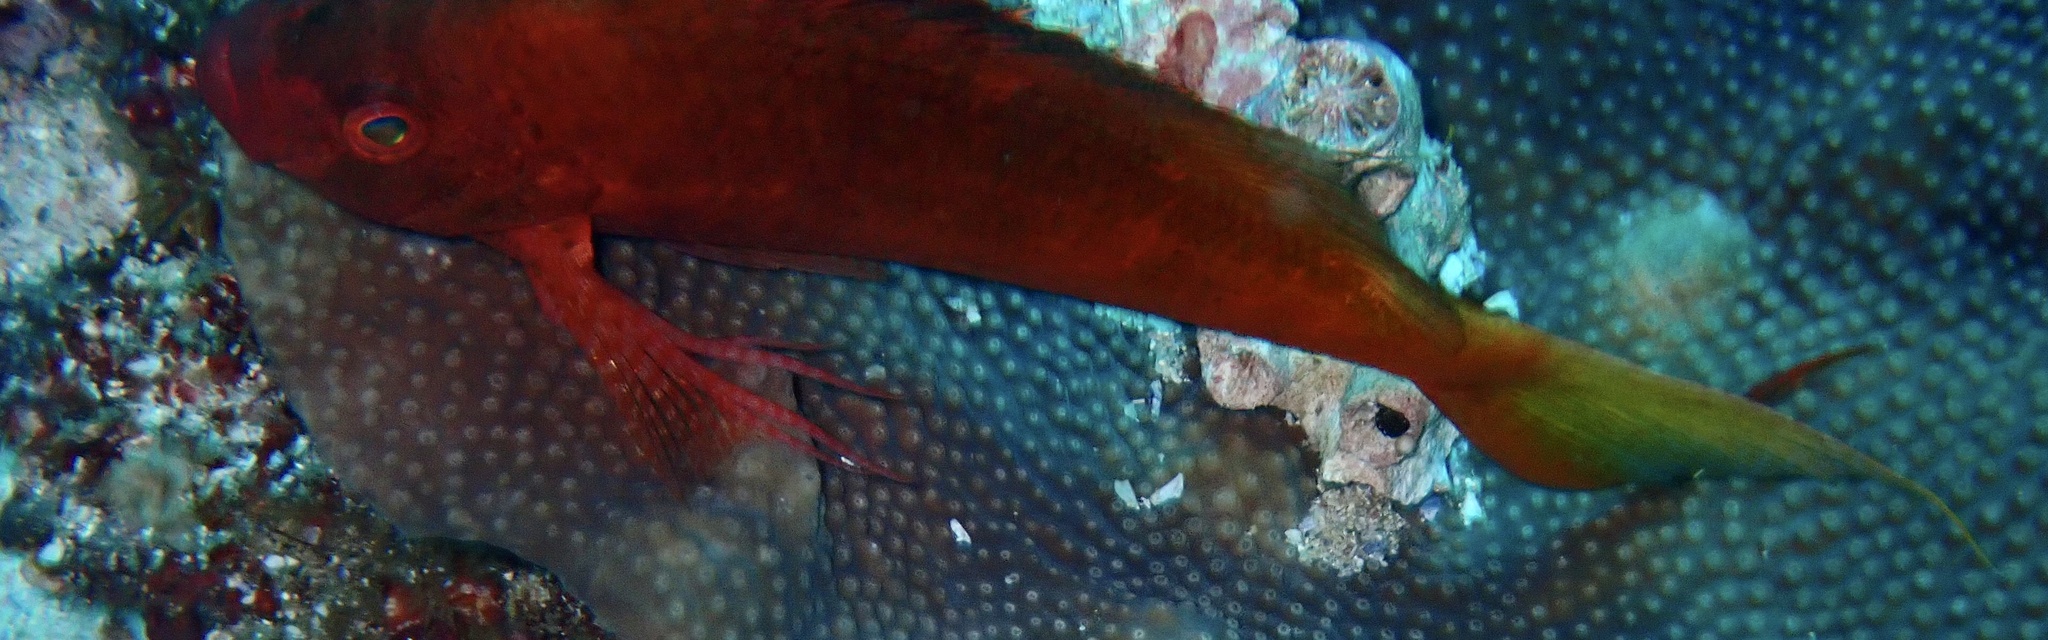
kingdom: Animalia
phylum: Chordata
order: Perciformes
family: Cirrhitidae
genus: Cyprinocirrhites
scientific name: Cyprinocirrhites polyactis
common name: Swallowtail hawkfish
